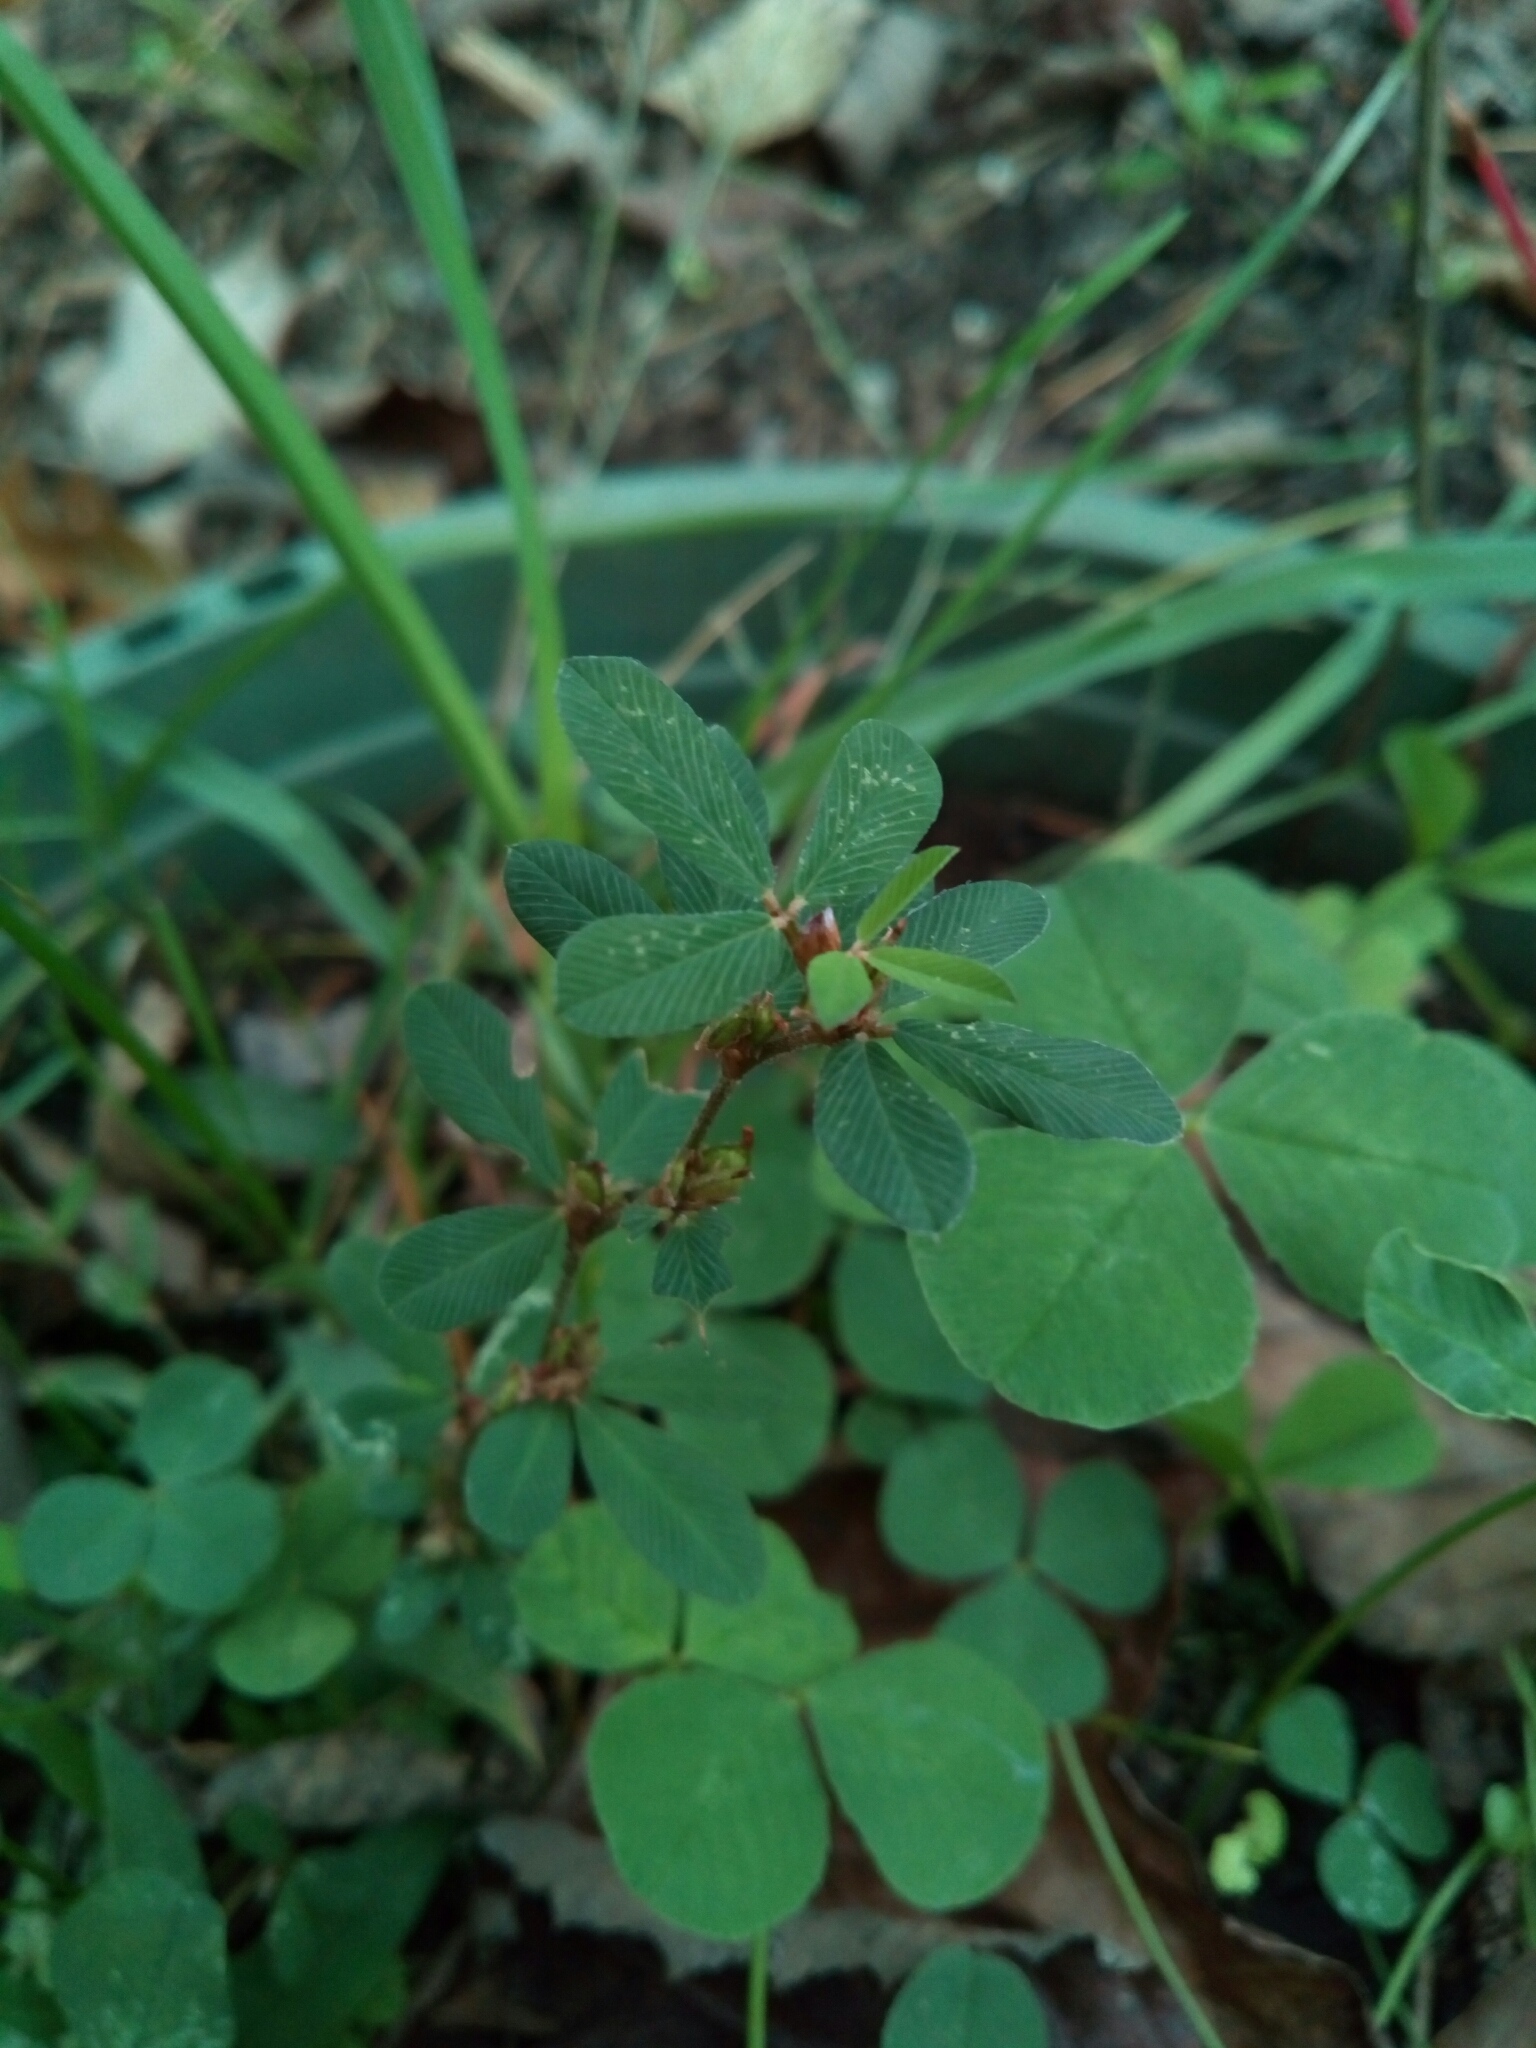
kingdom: Plantae
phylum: Tracheophyta
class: Magnoliopsida
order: Fabales
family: Fabaceae
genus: Kummerowia
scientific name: Kummerowia striata
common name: Japanese clover
